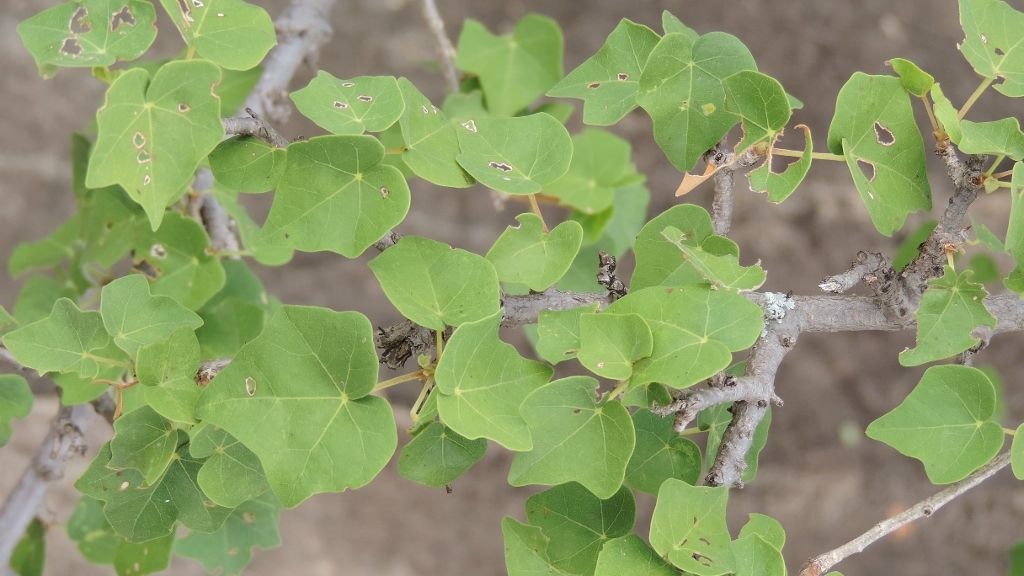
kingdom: Plantae
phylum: Tracheophyta
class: Magnoliopsida
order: Malvales
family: Malvaceae
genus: Sterculia
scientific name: Sterculia rogersii
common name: Star-chestnut
